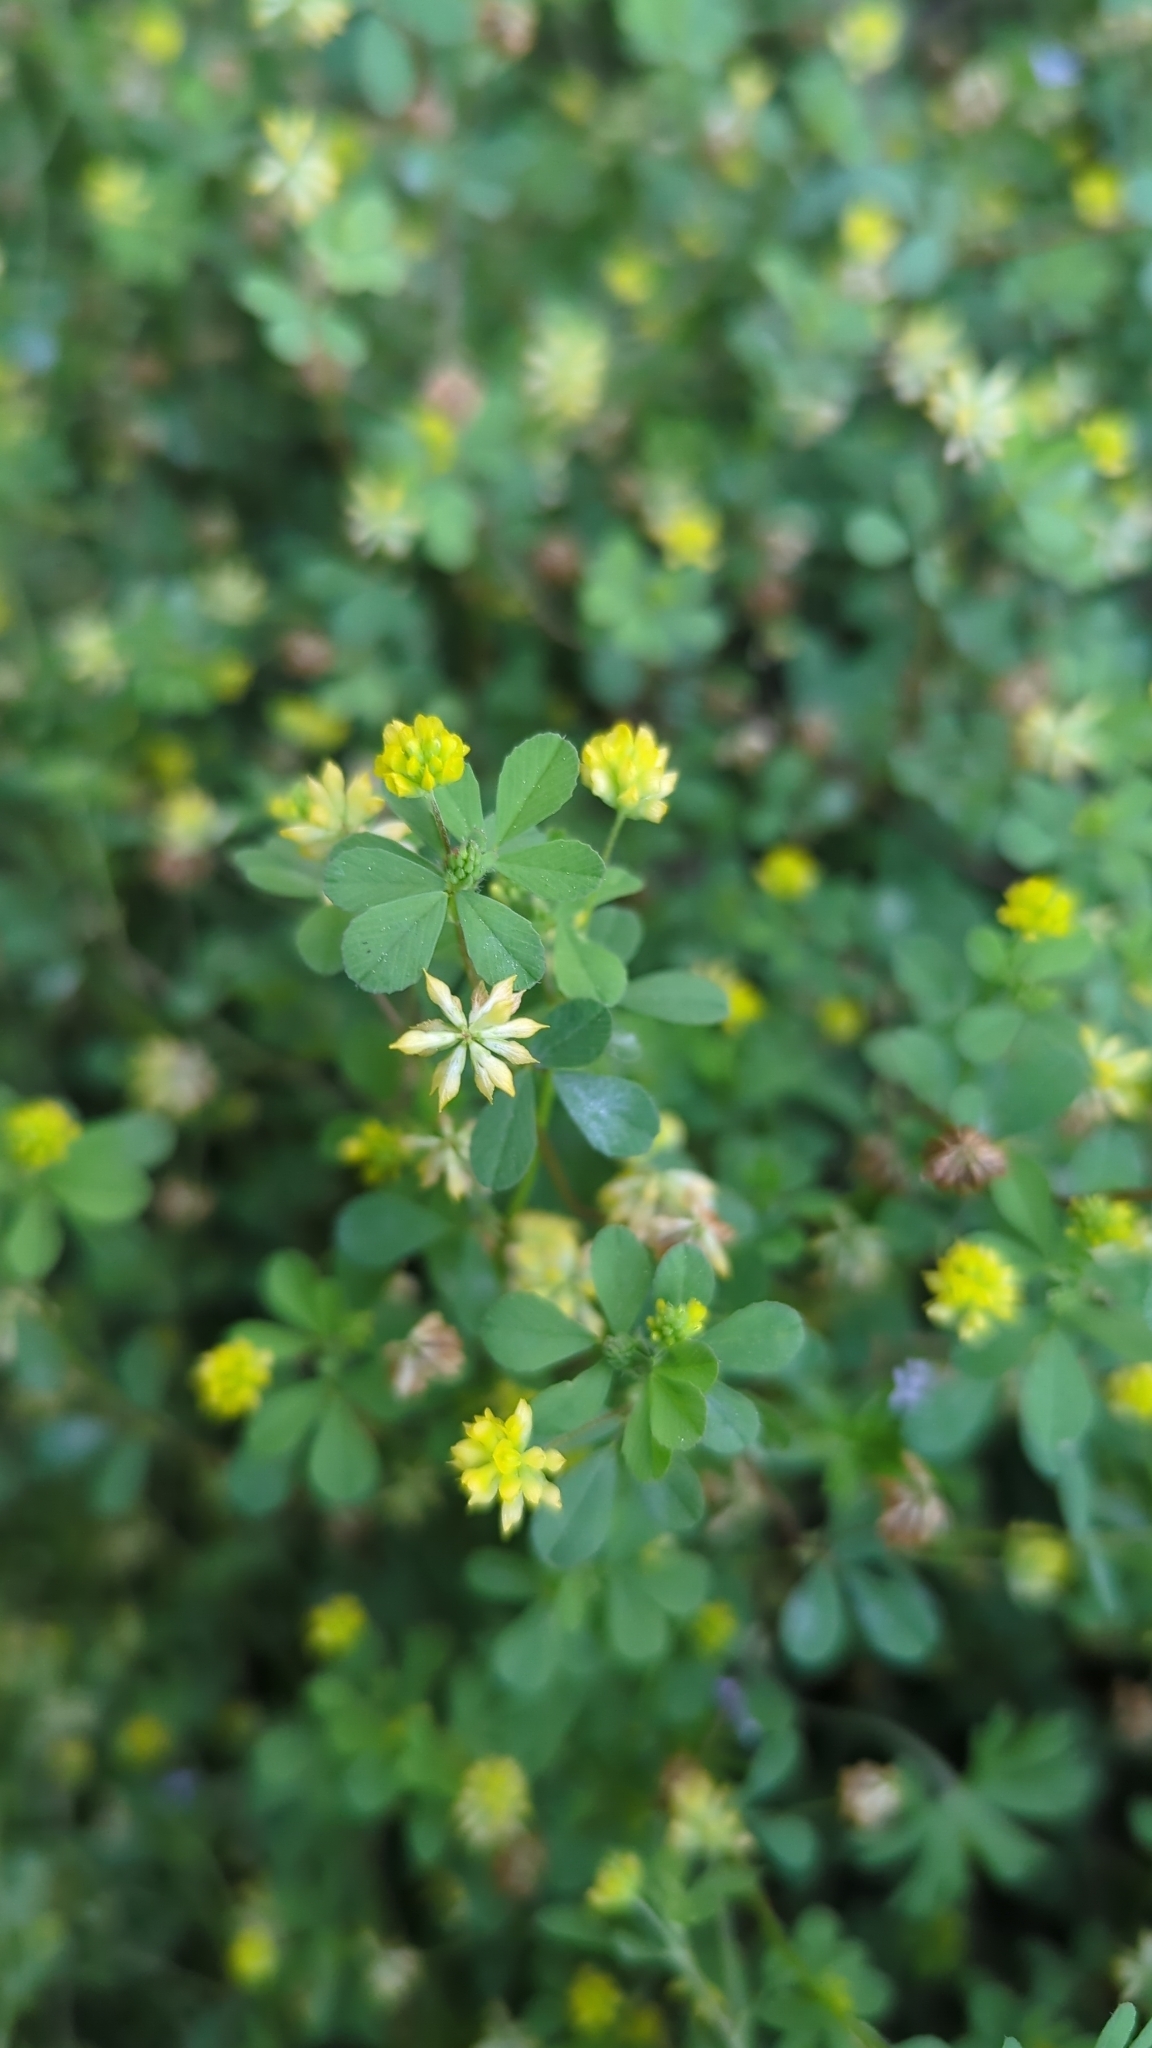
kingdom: Plantae
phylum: Tracheophyta
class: Magnoliopsida
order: Fabales
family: Fabaceae
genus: Trifolium
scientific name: Trifolium dubium
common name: Suckling clover
